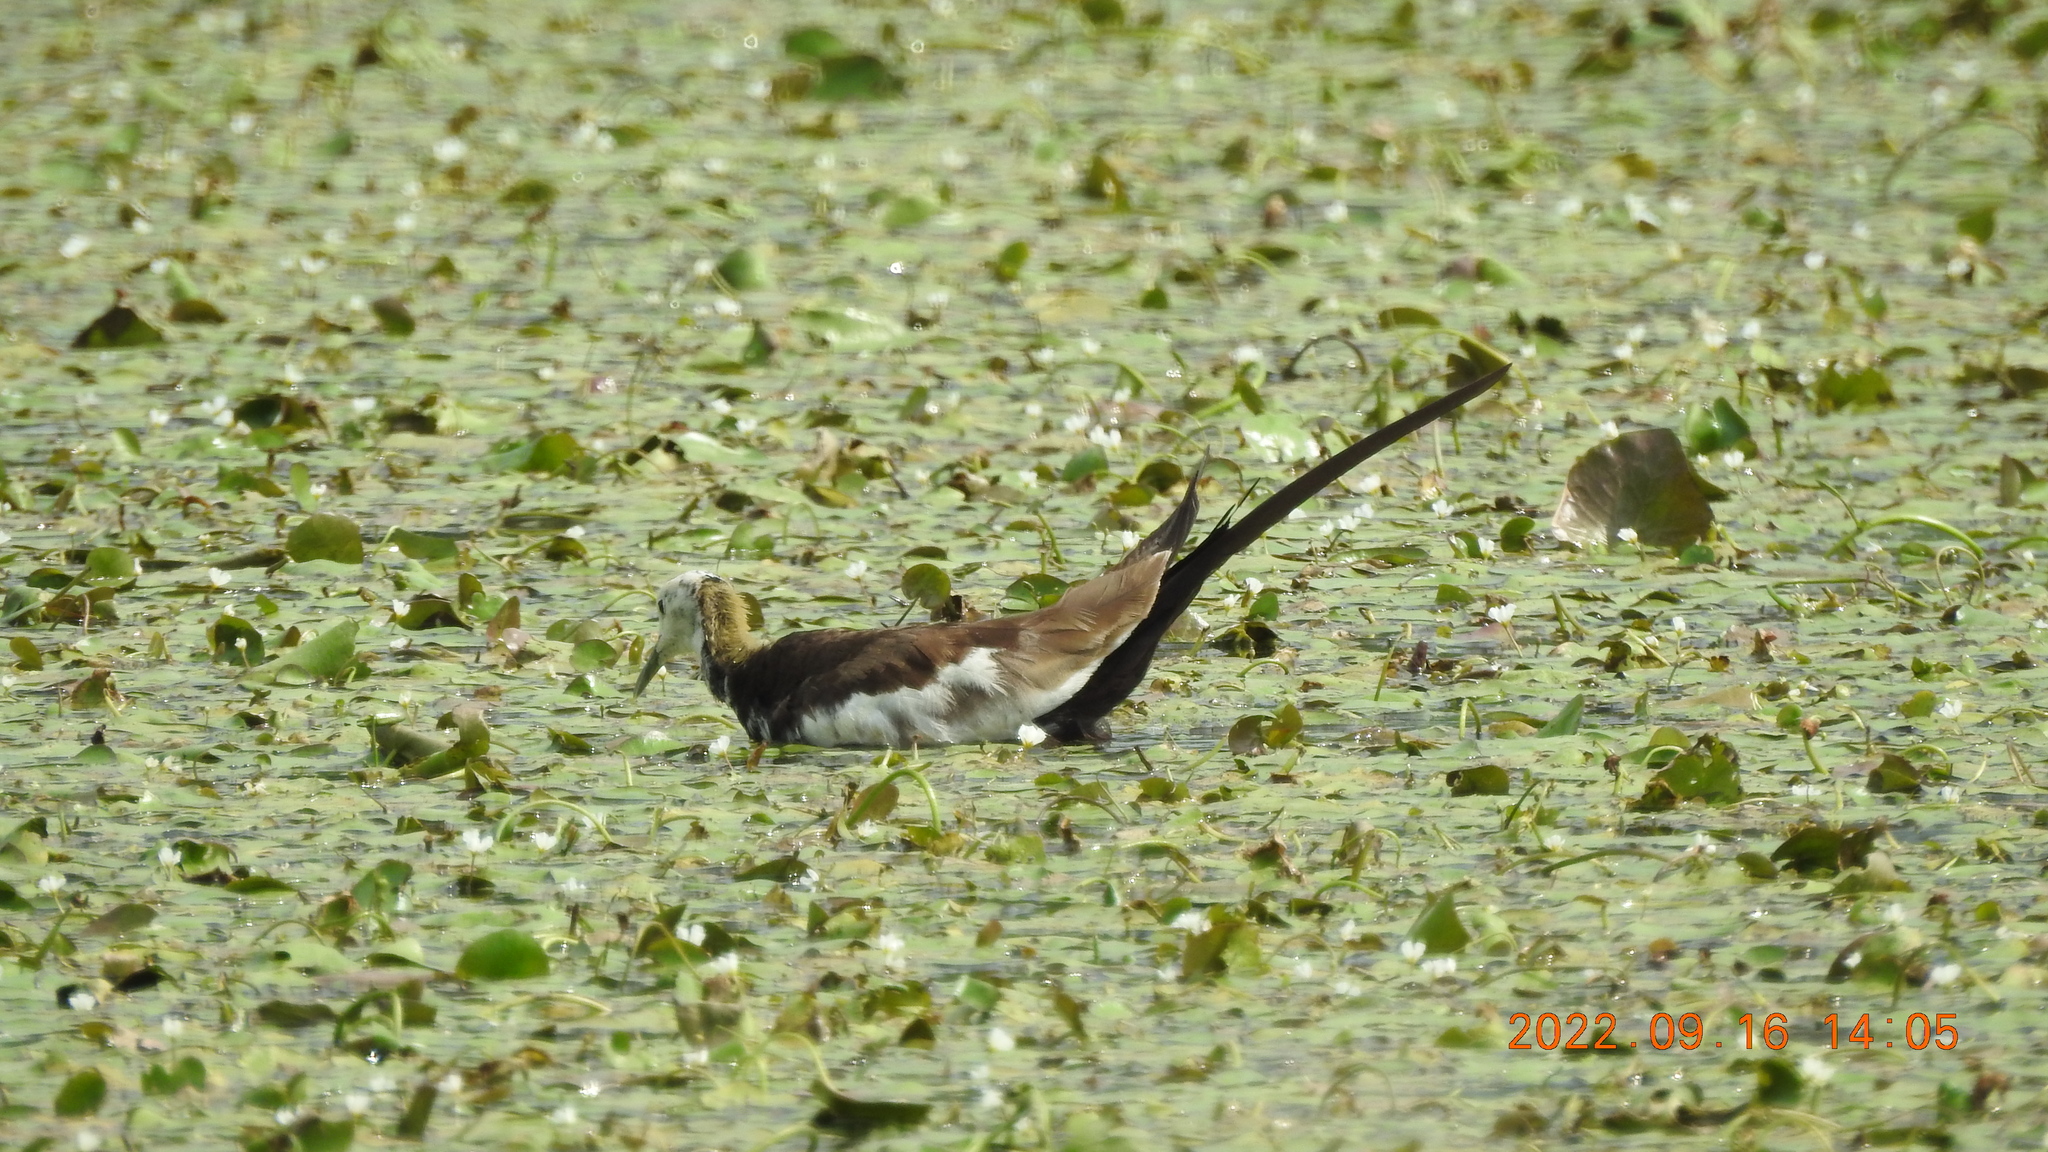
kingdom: Animalia
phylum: Chordata
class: Aves
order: Charadriiformes
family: Jacanidae
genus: Hydrophasianus
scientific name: Hydrophasianus chirurgus
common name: Pheasant-tailed jacana
